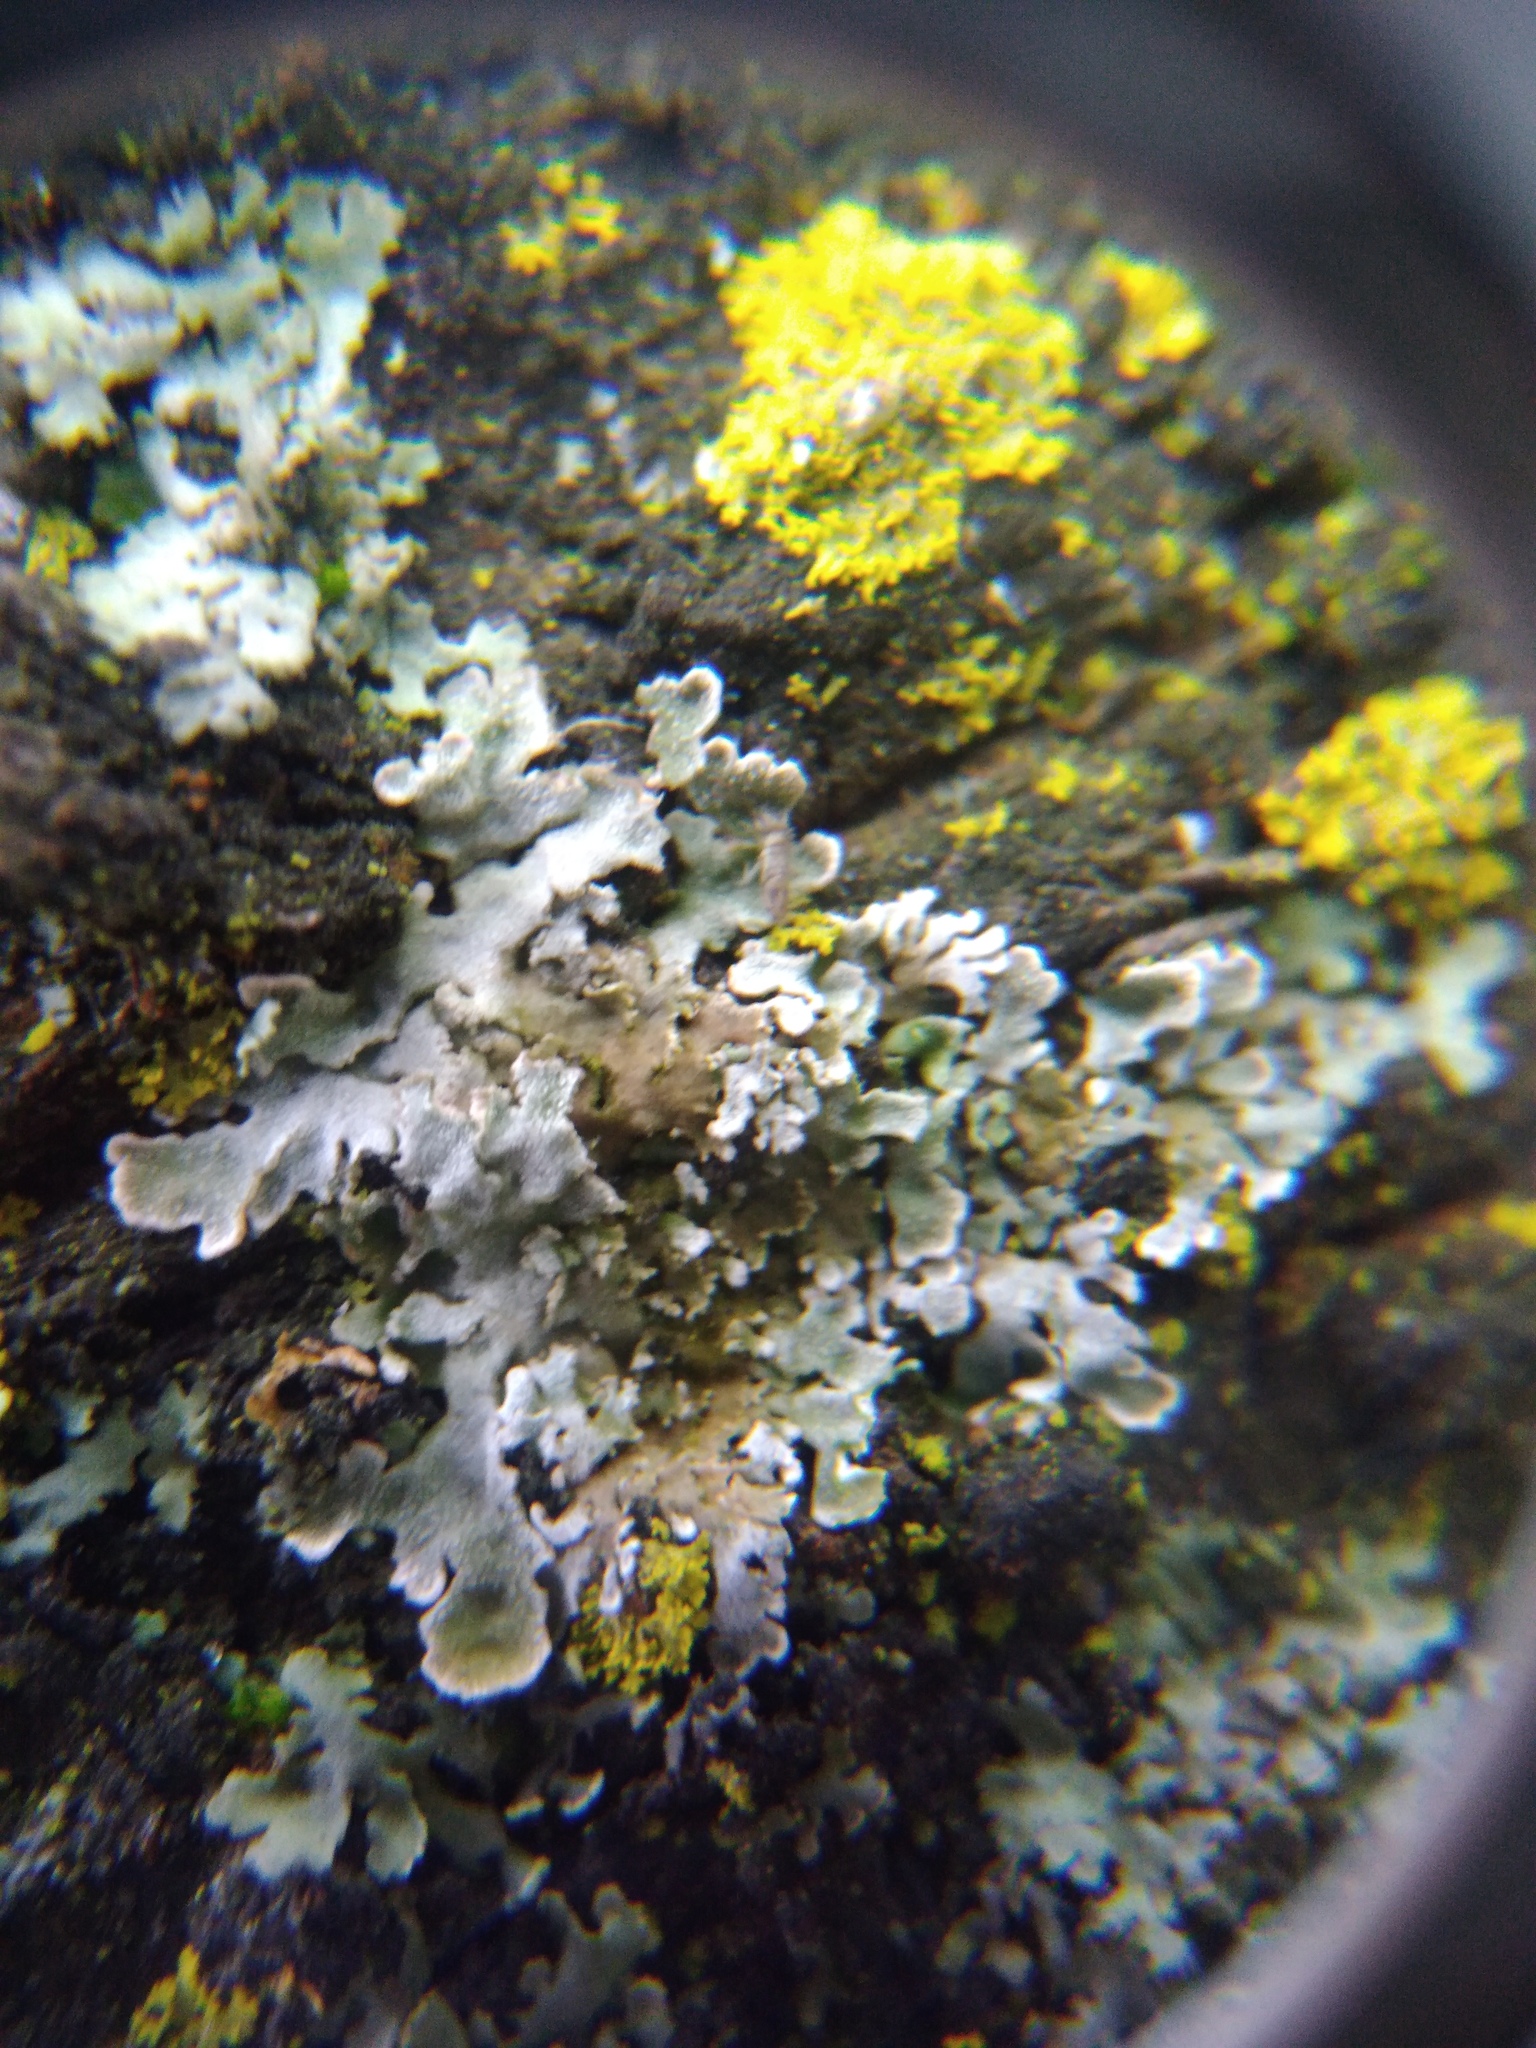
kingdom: Fungi
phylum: Ascomycota
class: Lecanoromycetes
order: Caliciales
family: Physciaceae
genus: Physconia
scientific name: Physconia enteroxantha
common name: Yellow-edged frost lichen
